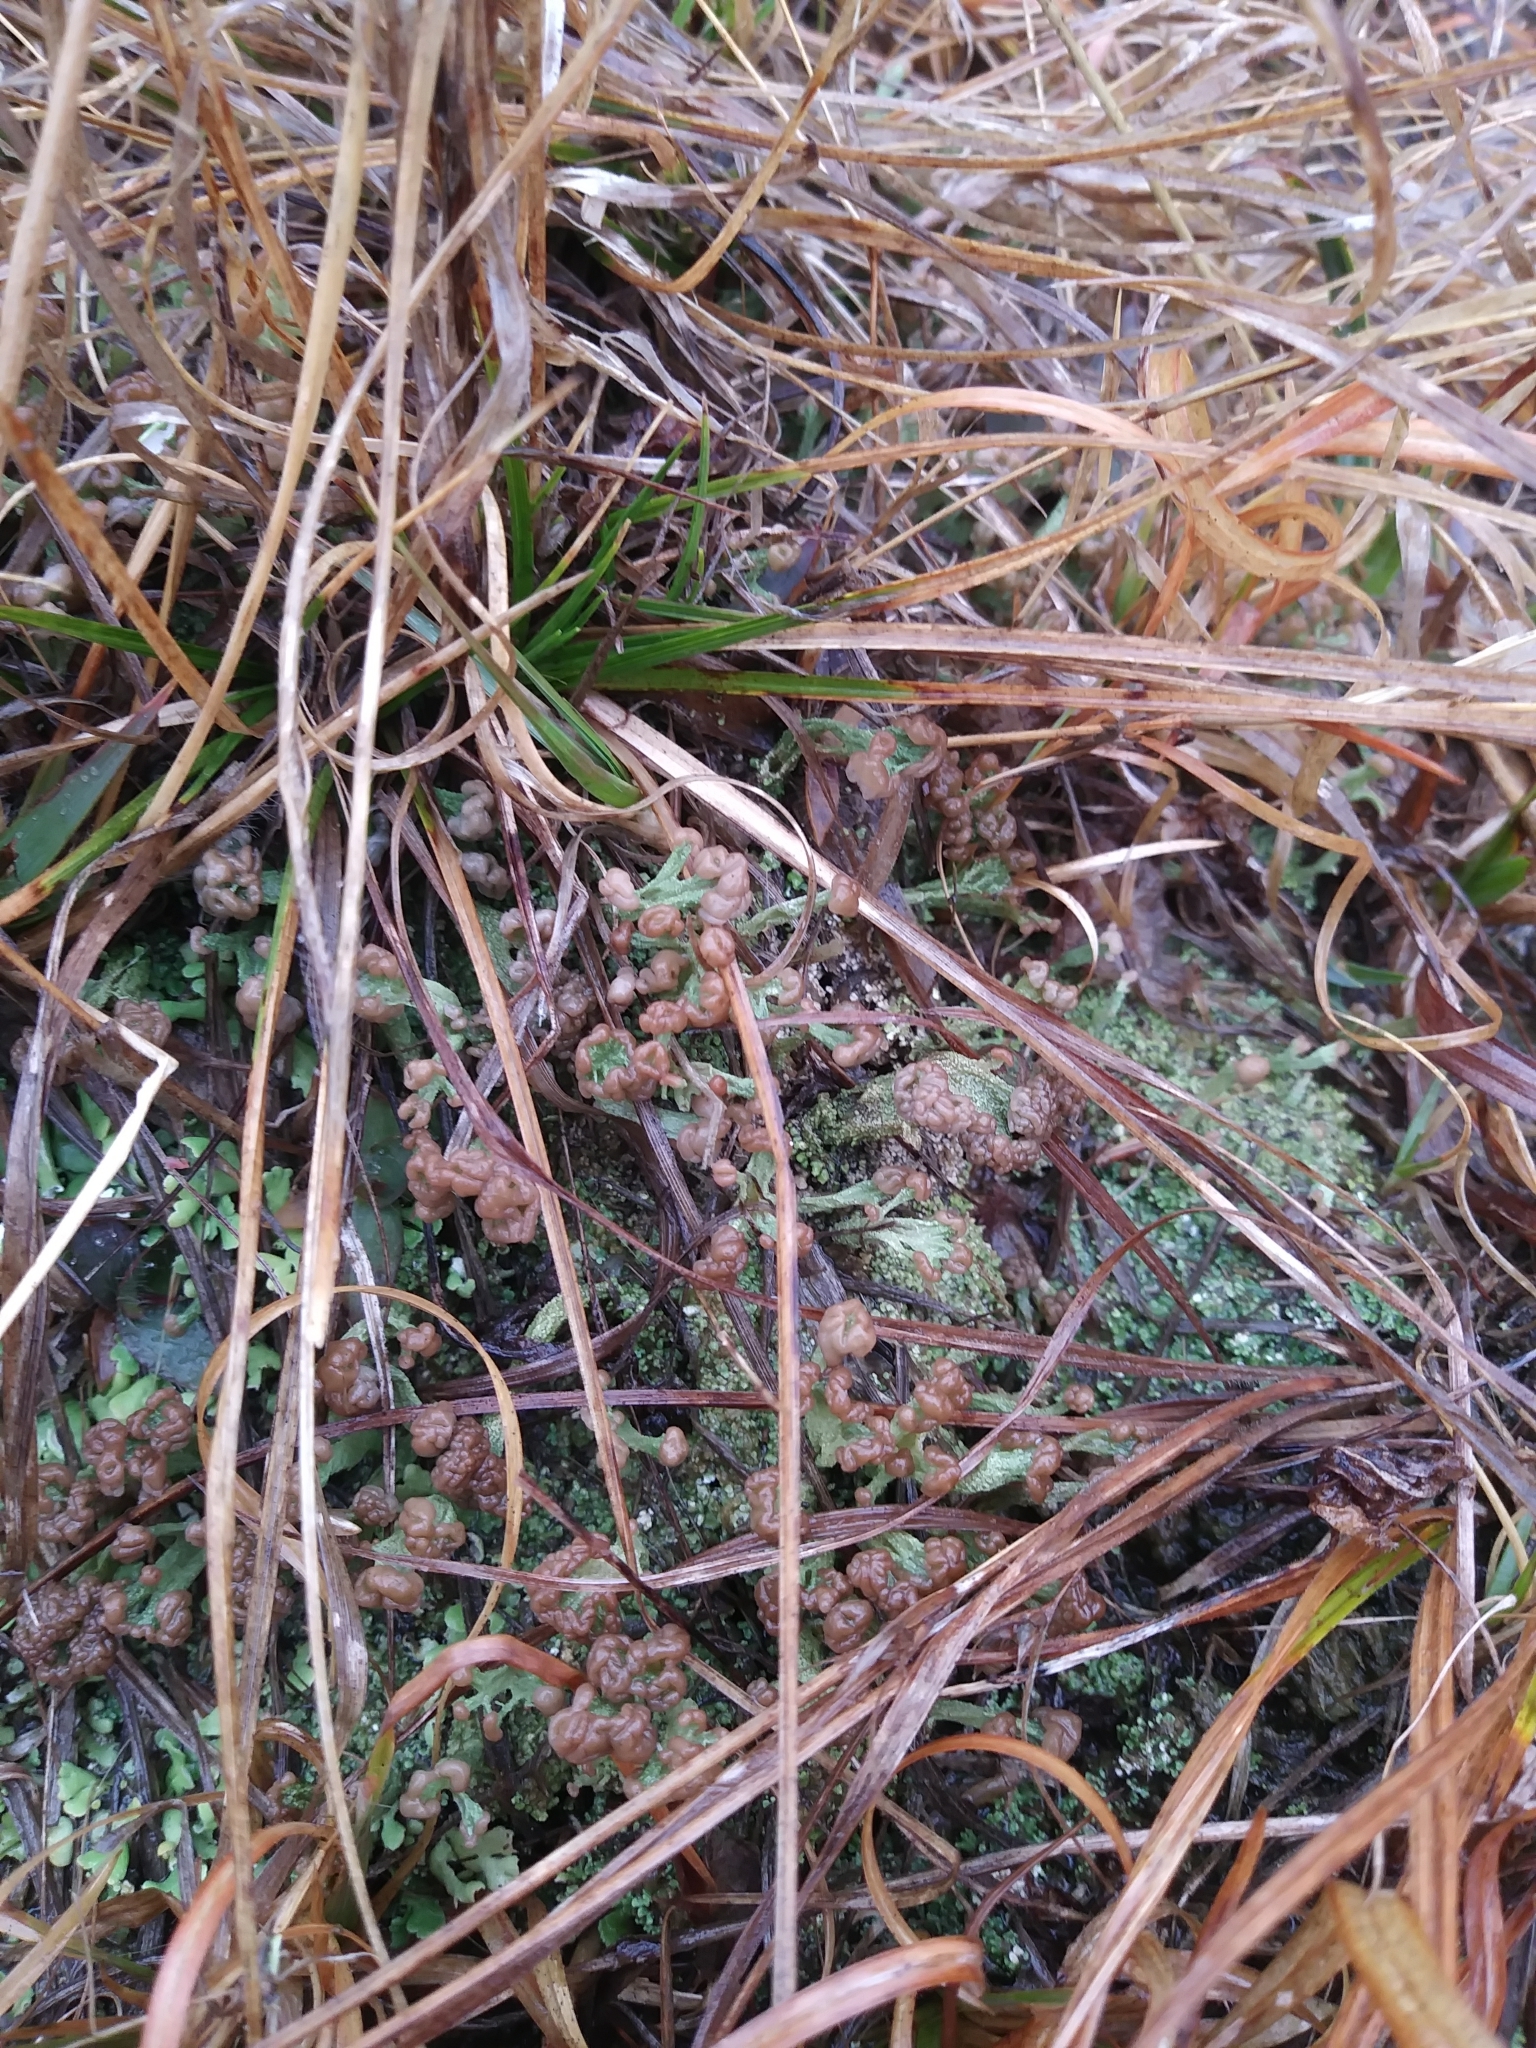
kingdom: Fungi
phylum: Ascomycota
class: Lecanoromycetes
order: Lecanorales
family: Cladoniaceae
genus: Cladonia
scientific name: Cladonia peziziformis
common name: Cup lichen
